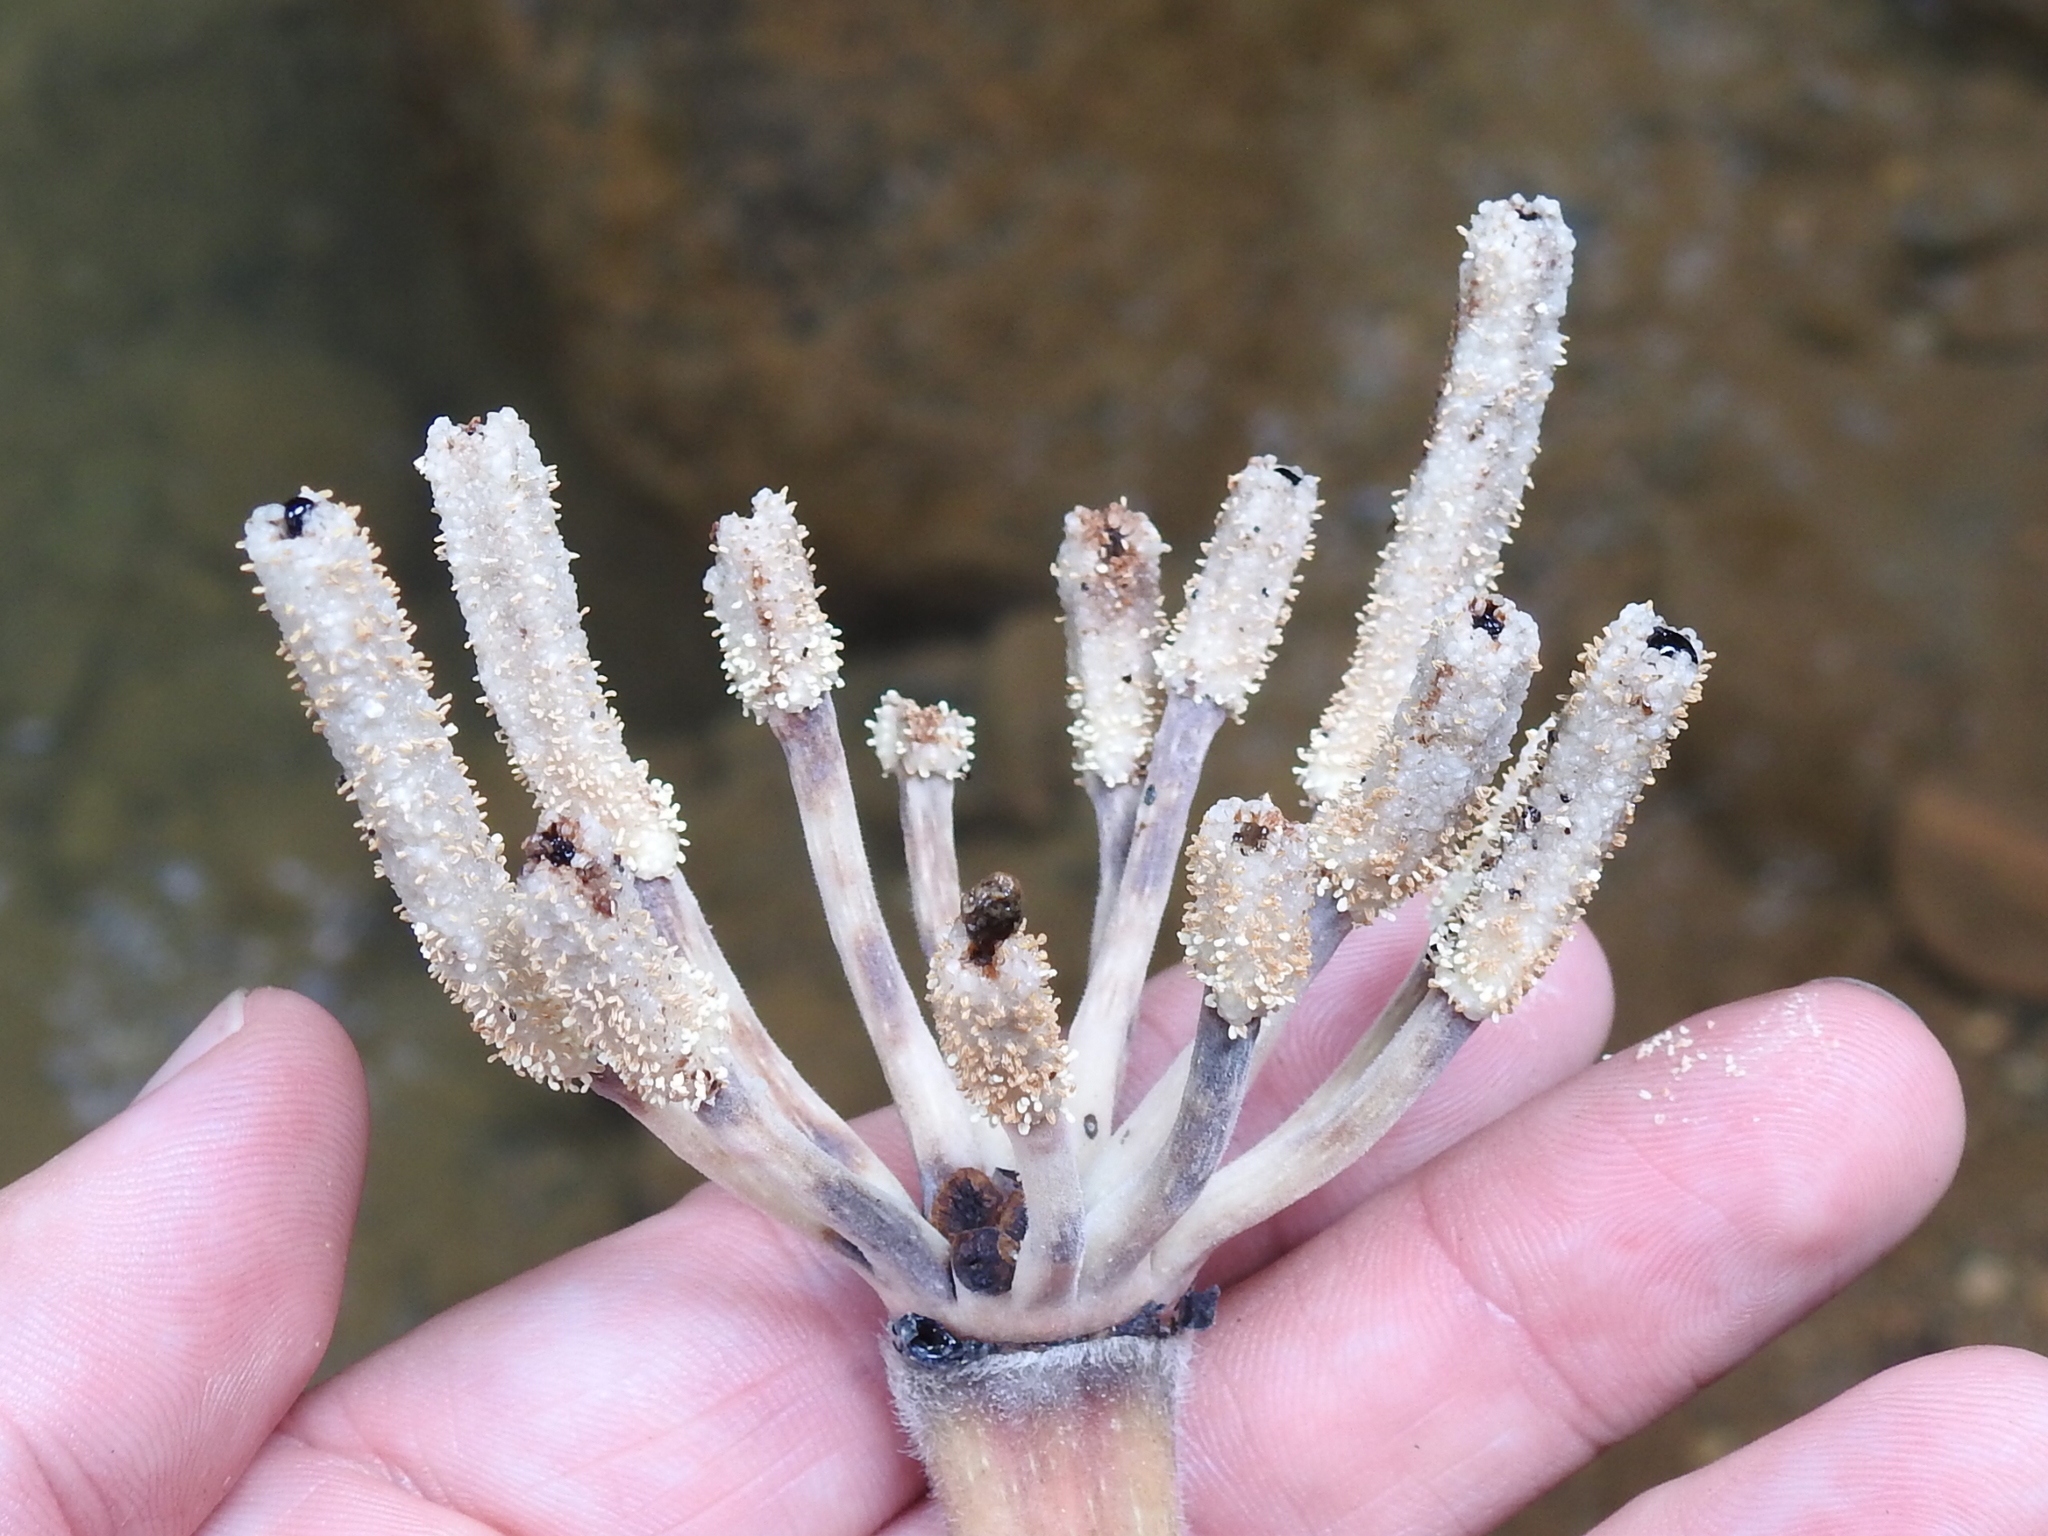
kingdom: Plantae
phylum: Tracheophyta
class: Magnoliopsida
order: Rosales
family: Urticaceae
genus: Cecropia
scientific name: Cecropia obtusifolia
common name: Trumpet tree
